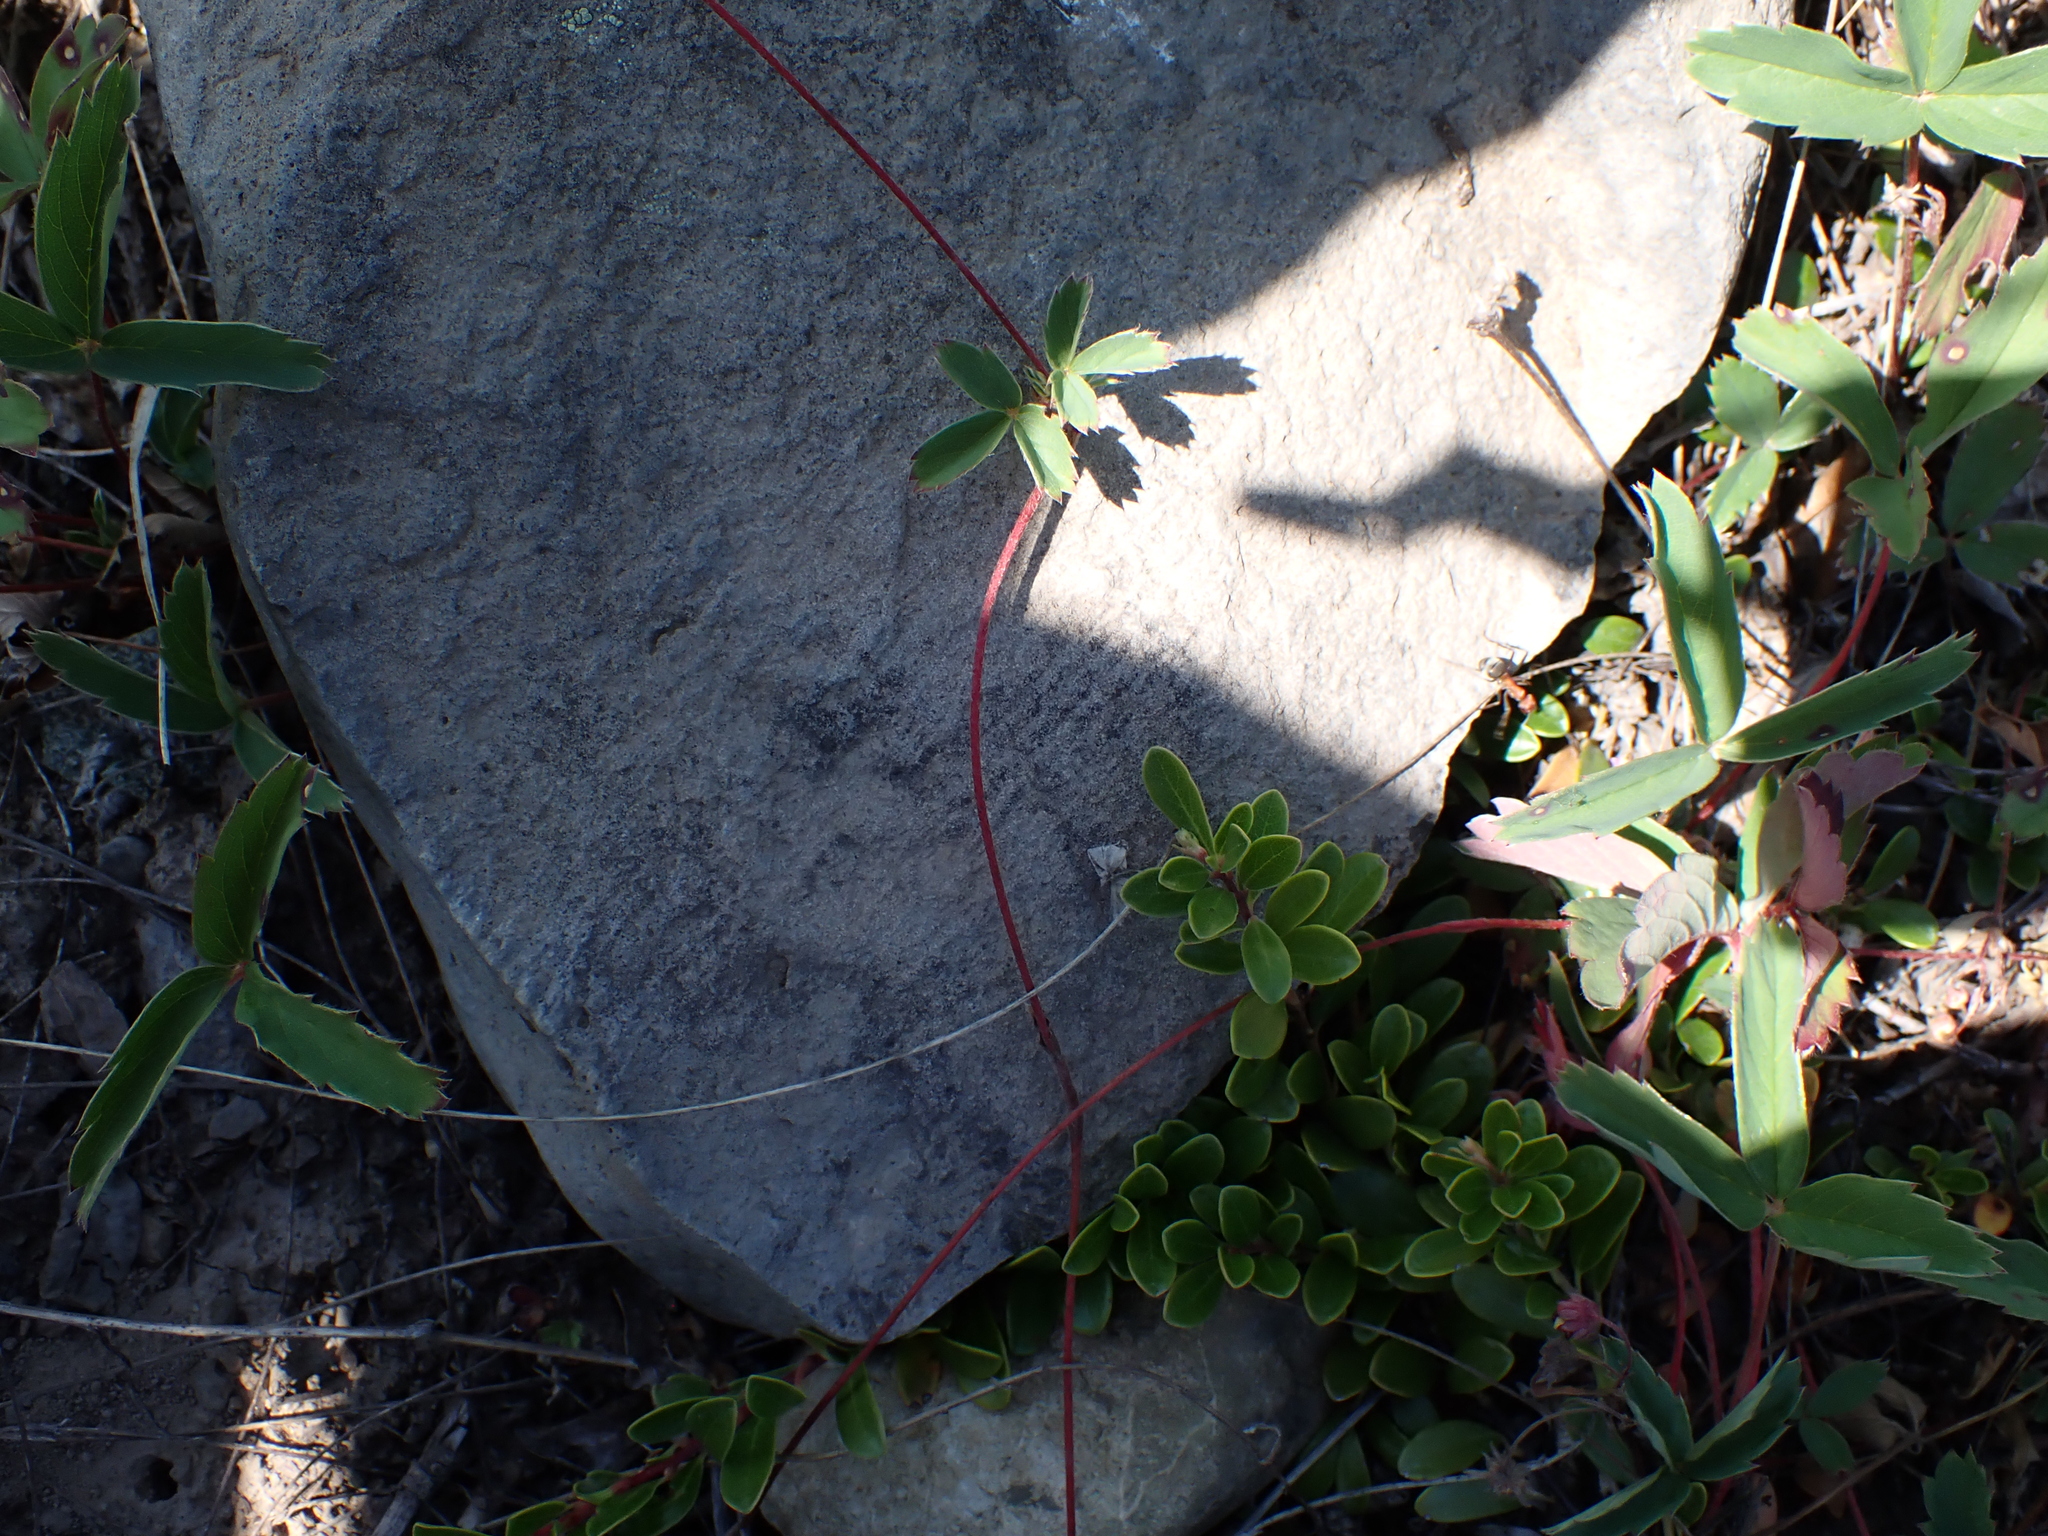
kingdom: Plantae
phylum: Tracheophyta
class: Magnoliopsida
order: Ericales
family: Ericaceae
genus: Arctostaphylos
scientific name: Arctostaphylos uva-ursi
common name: Bearberry
